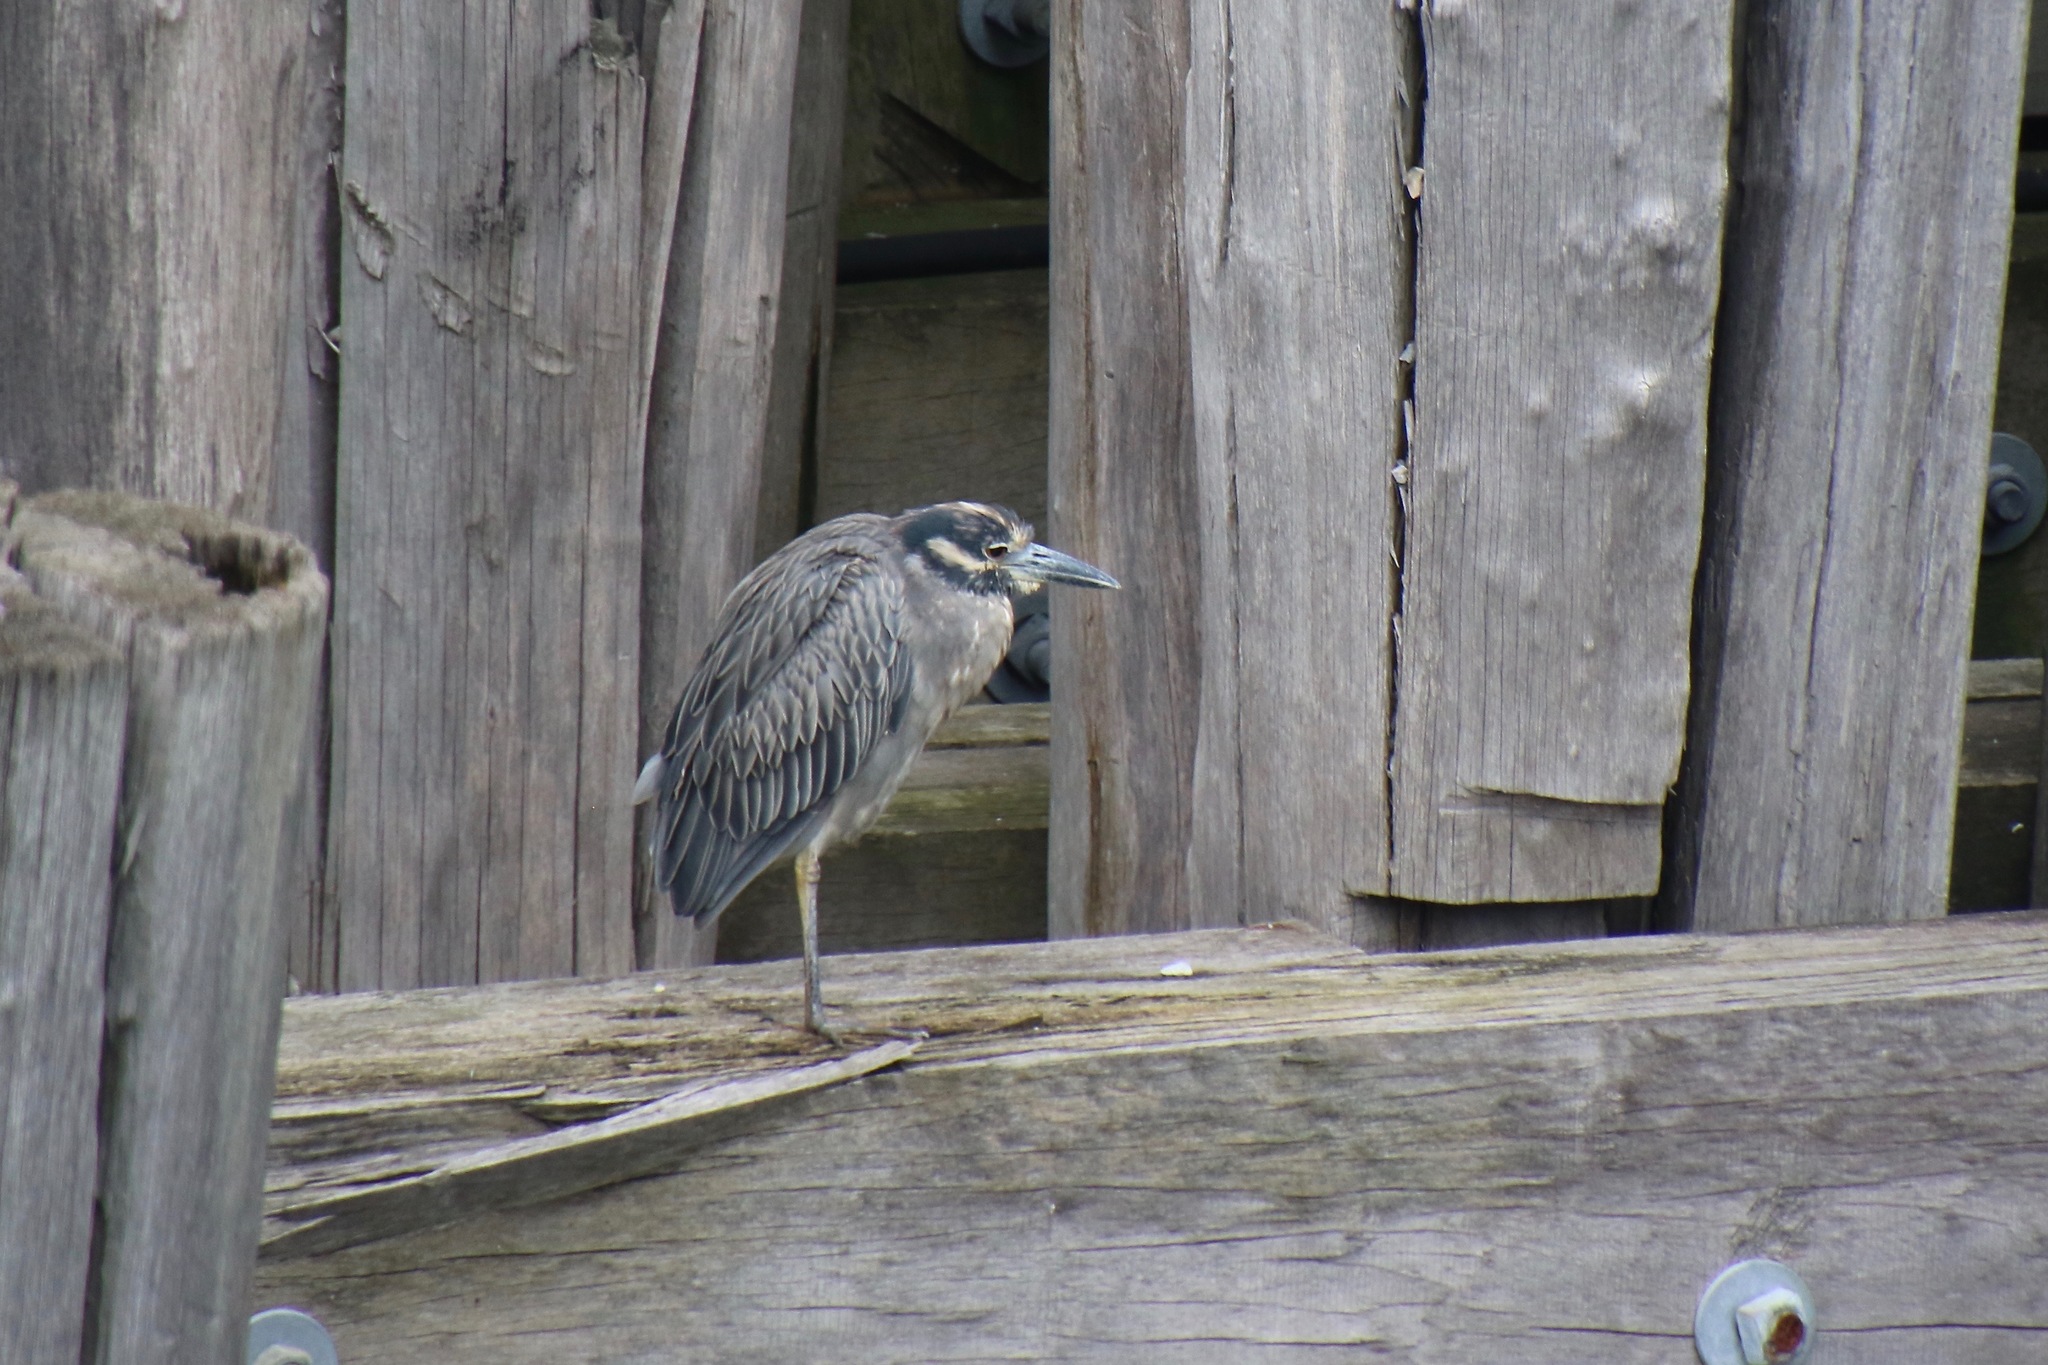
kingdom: Animalia
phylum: Chordata
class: Aves
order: Pelecaniformes
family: Ardeidae
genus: Nyctanassa
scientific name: Nyctanassa violacea
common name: Yellow-crowned night heron
